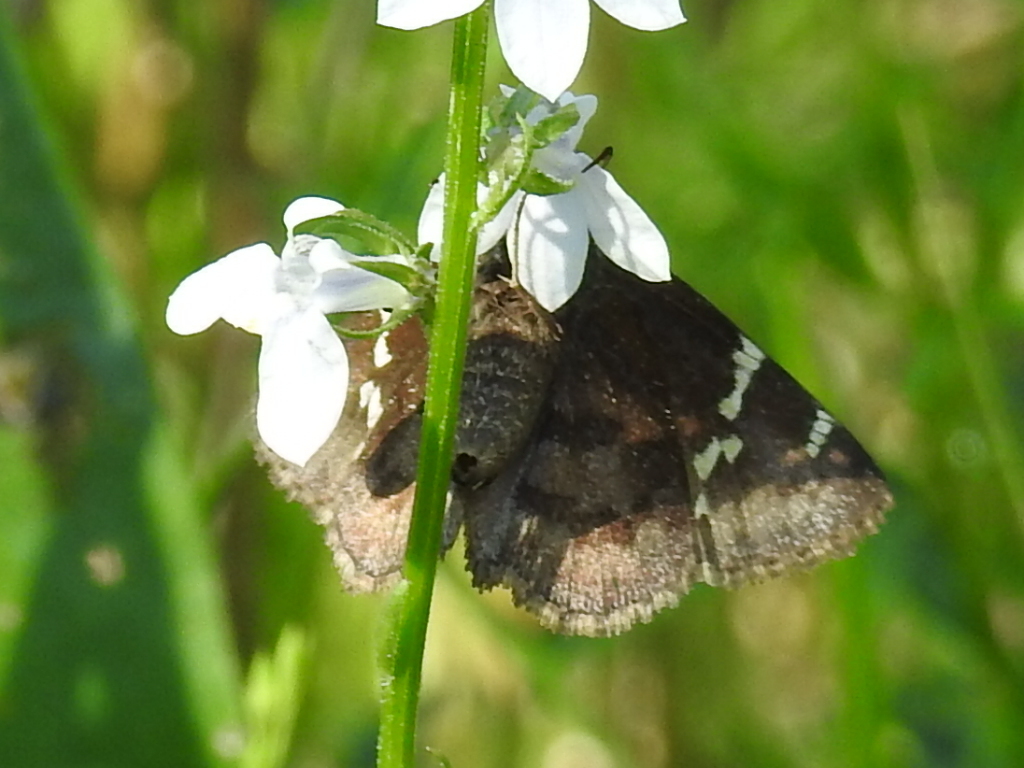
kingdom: Animalia
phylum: Arthropoda
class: Insecta
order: Lepidoptera
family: Hesperiidae
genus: Thorybes
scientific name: Thorybes daunus
